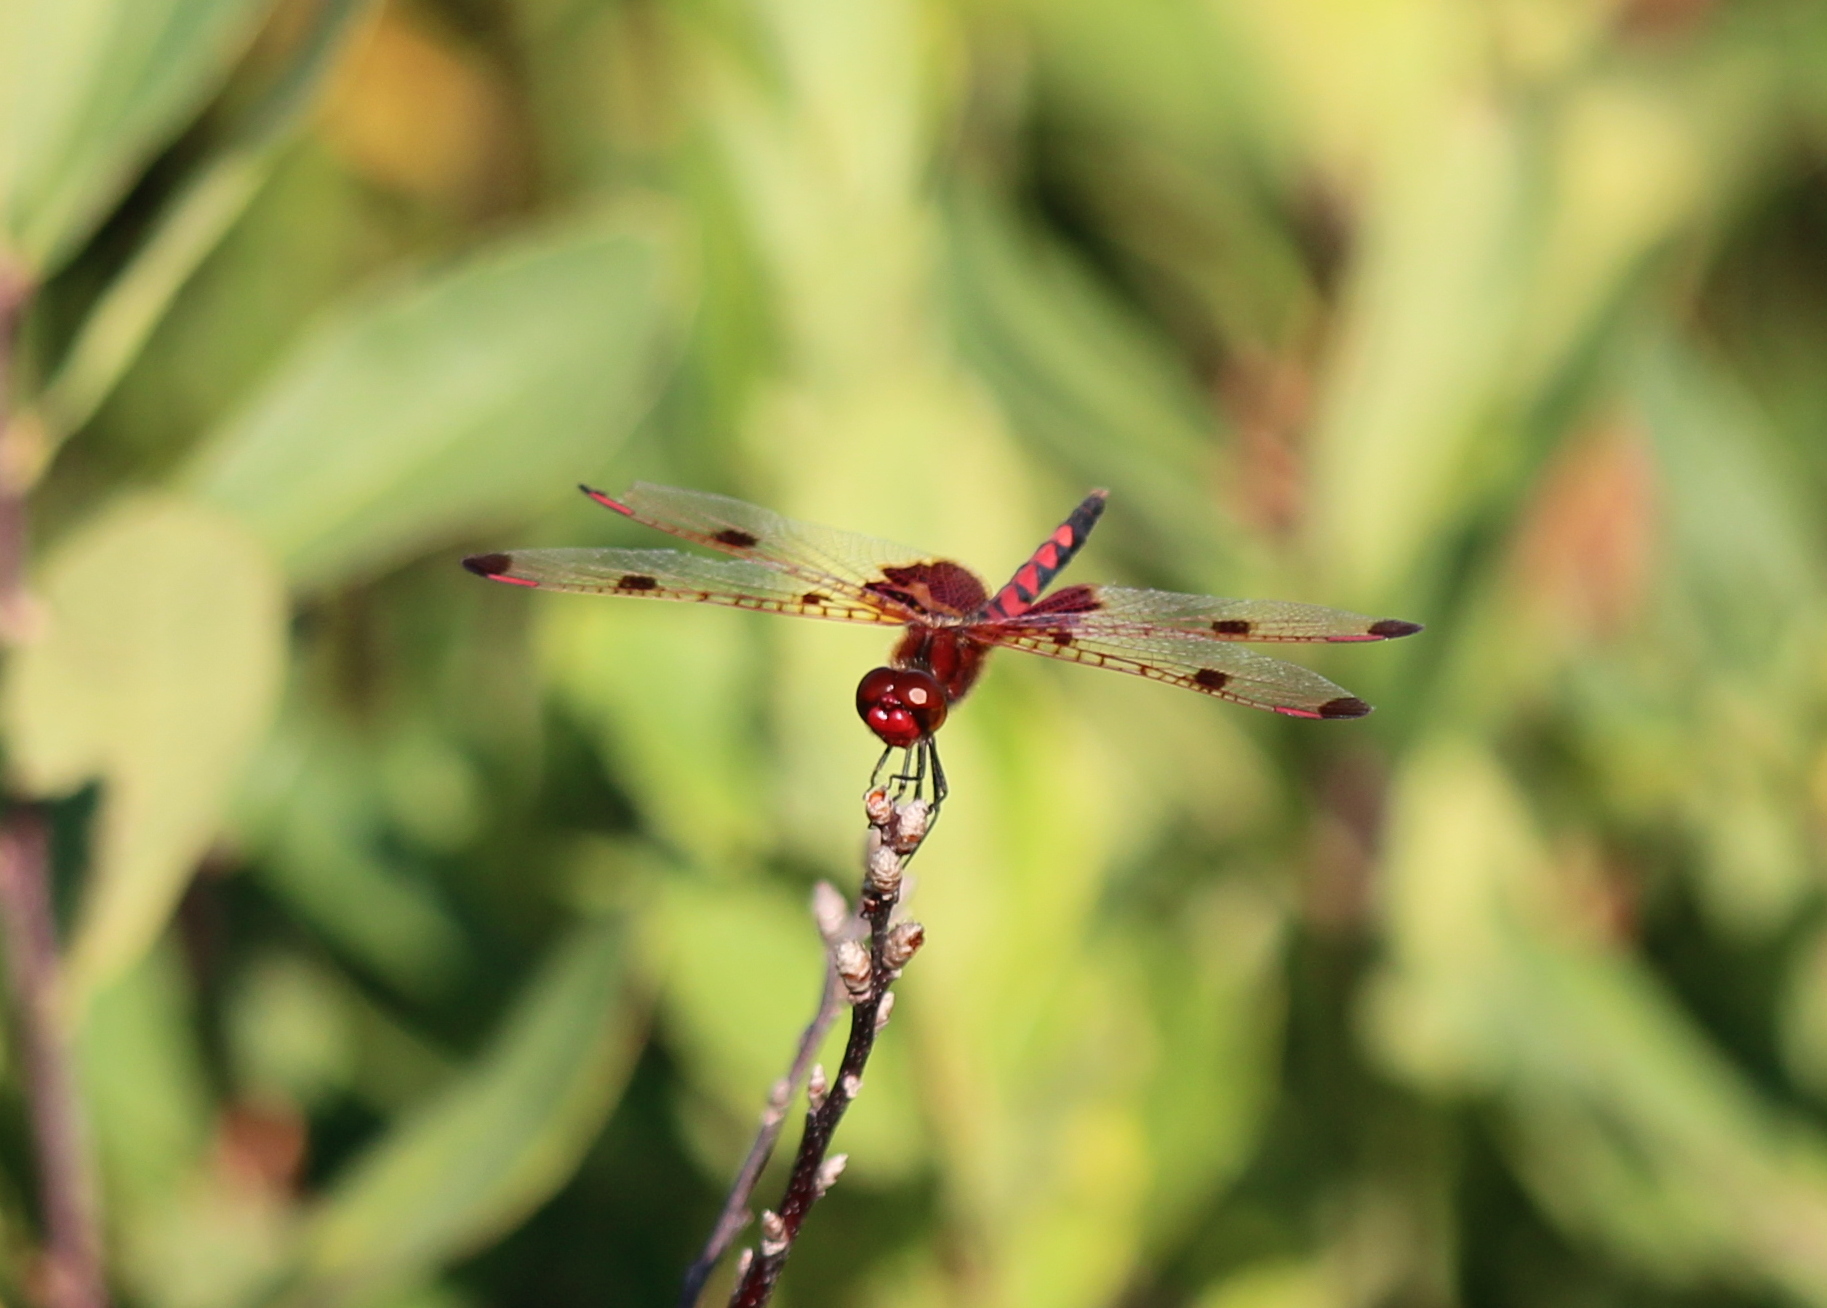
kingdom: Animalia
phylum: Arthropoda
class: Insecta
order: Odonata
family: Libellulidae
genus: Celithemis
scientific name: Celithemis elisa
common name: Calico pennant
